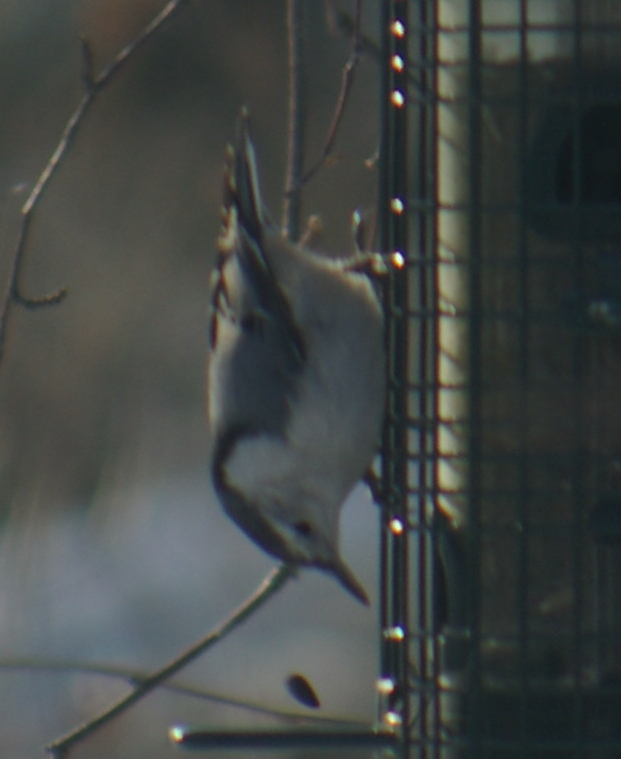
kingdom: Animalia
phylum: Chordata
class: Aves
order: Passeriformes
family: Sittidae
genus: Sitta
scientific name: Sitta carolinensis
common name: White-breasted nuthatch
